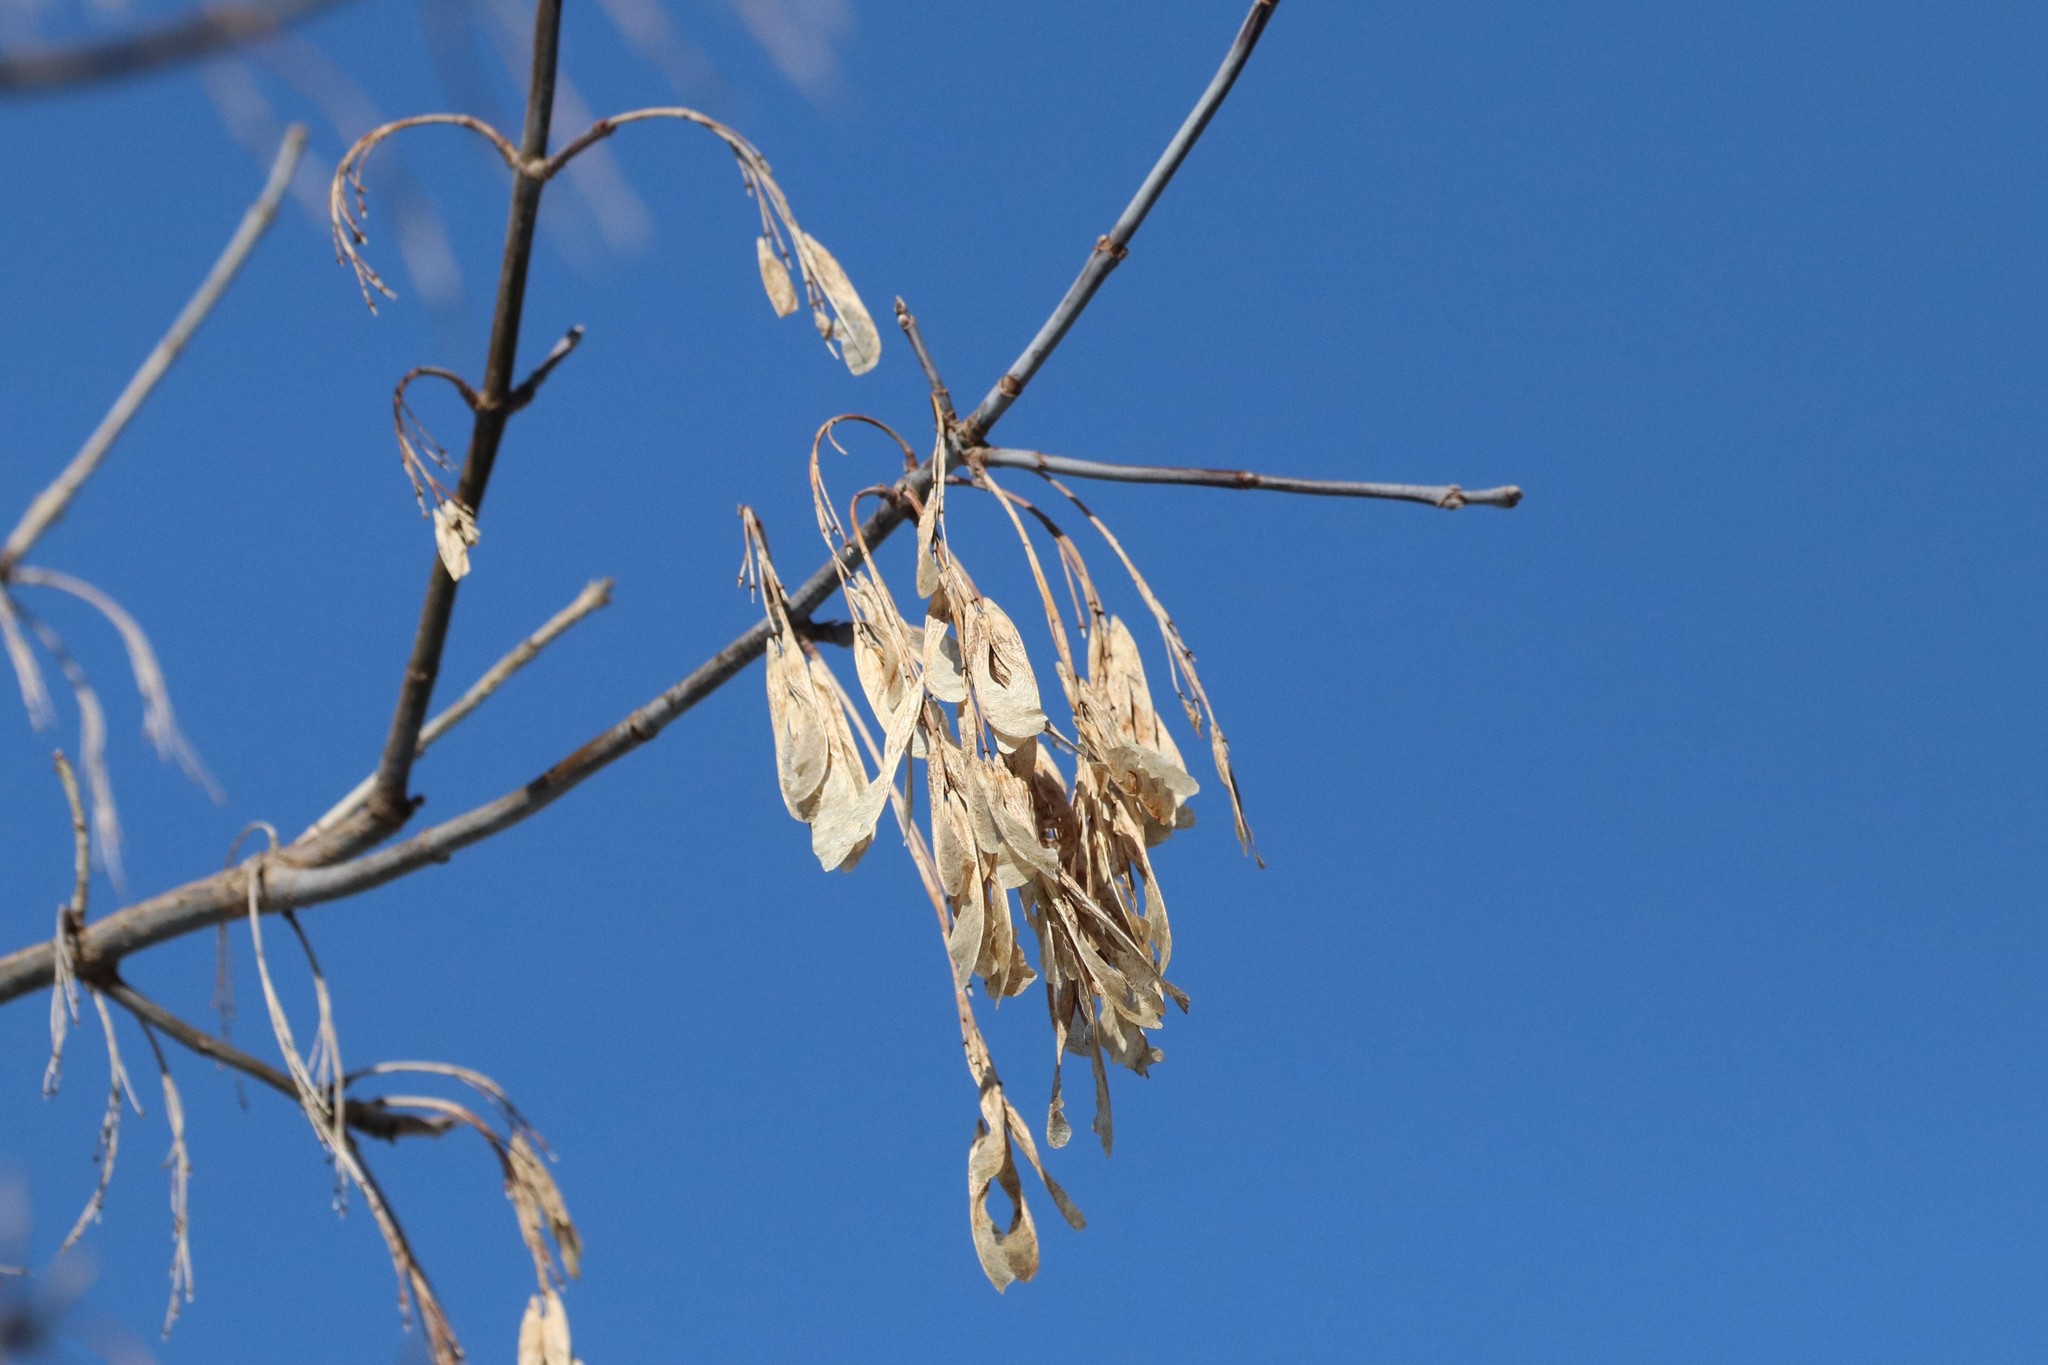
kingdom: Plantae
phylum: Tracheophyta
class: Magnoliopsida
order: Sapindales
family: Sapindaceae
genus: Acer
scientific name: Acer negundo
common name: Ashleaf maple
